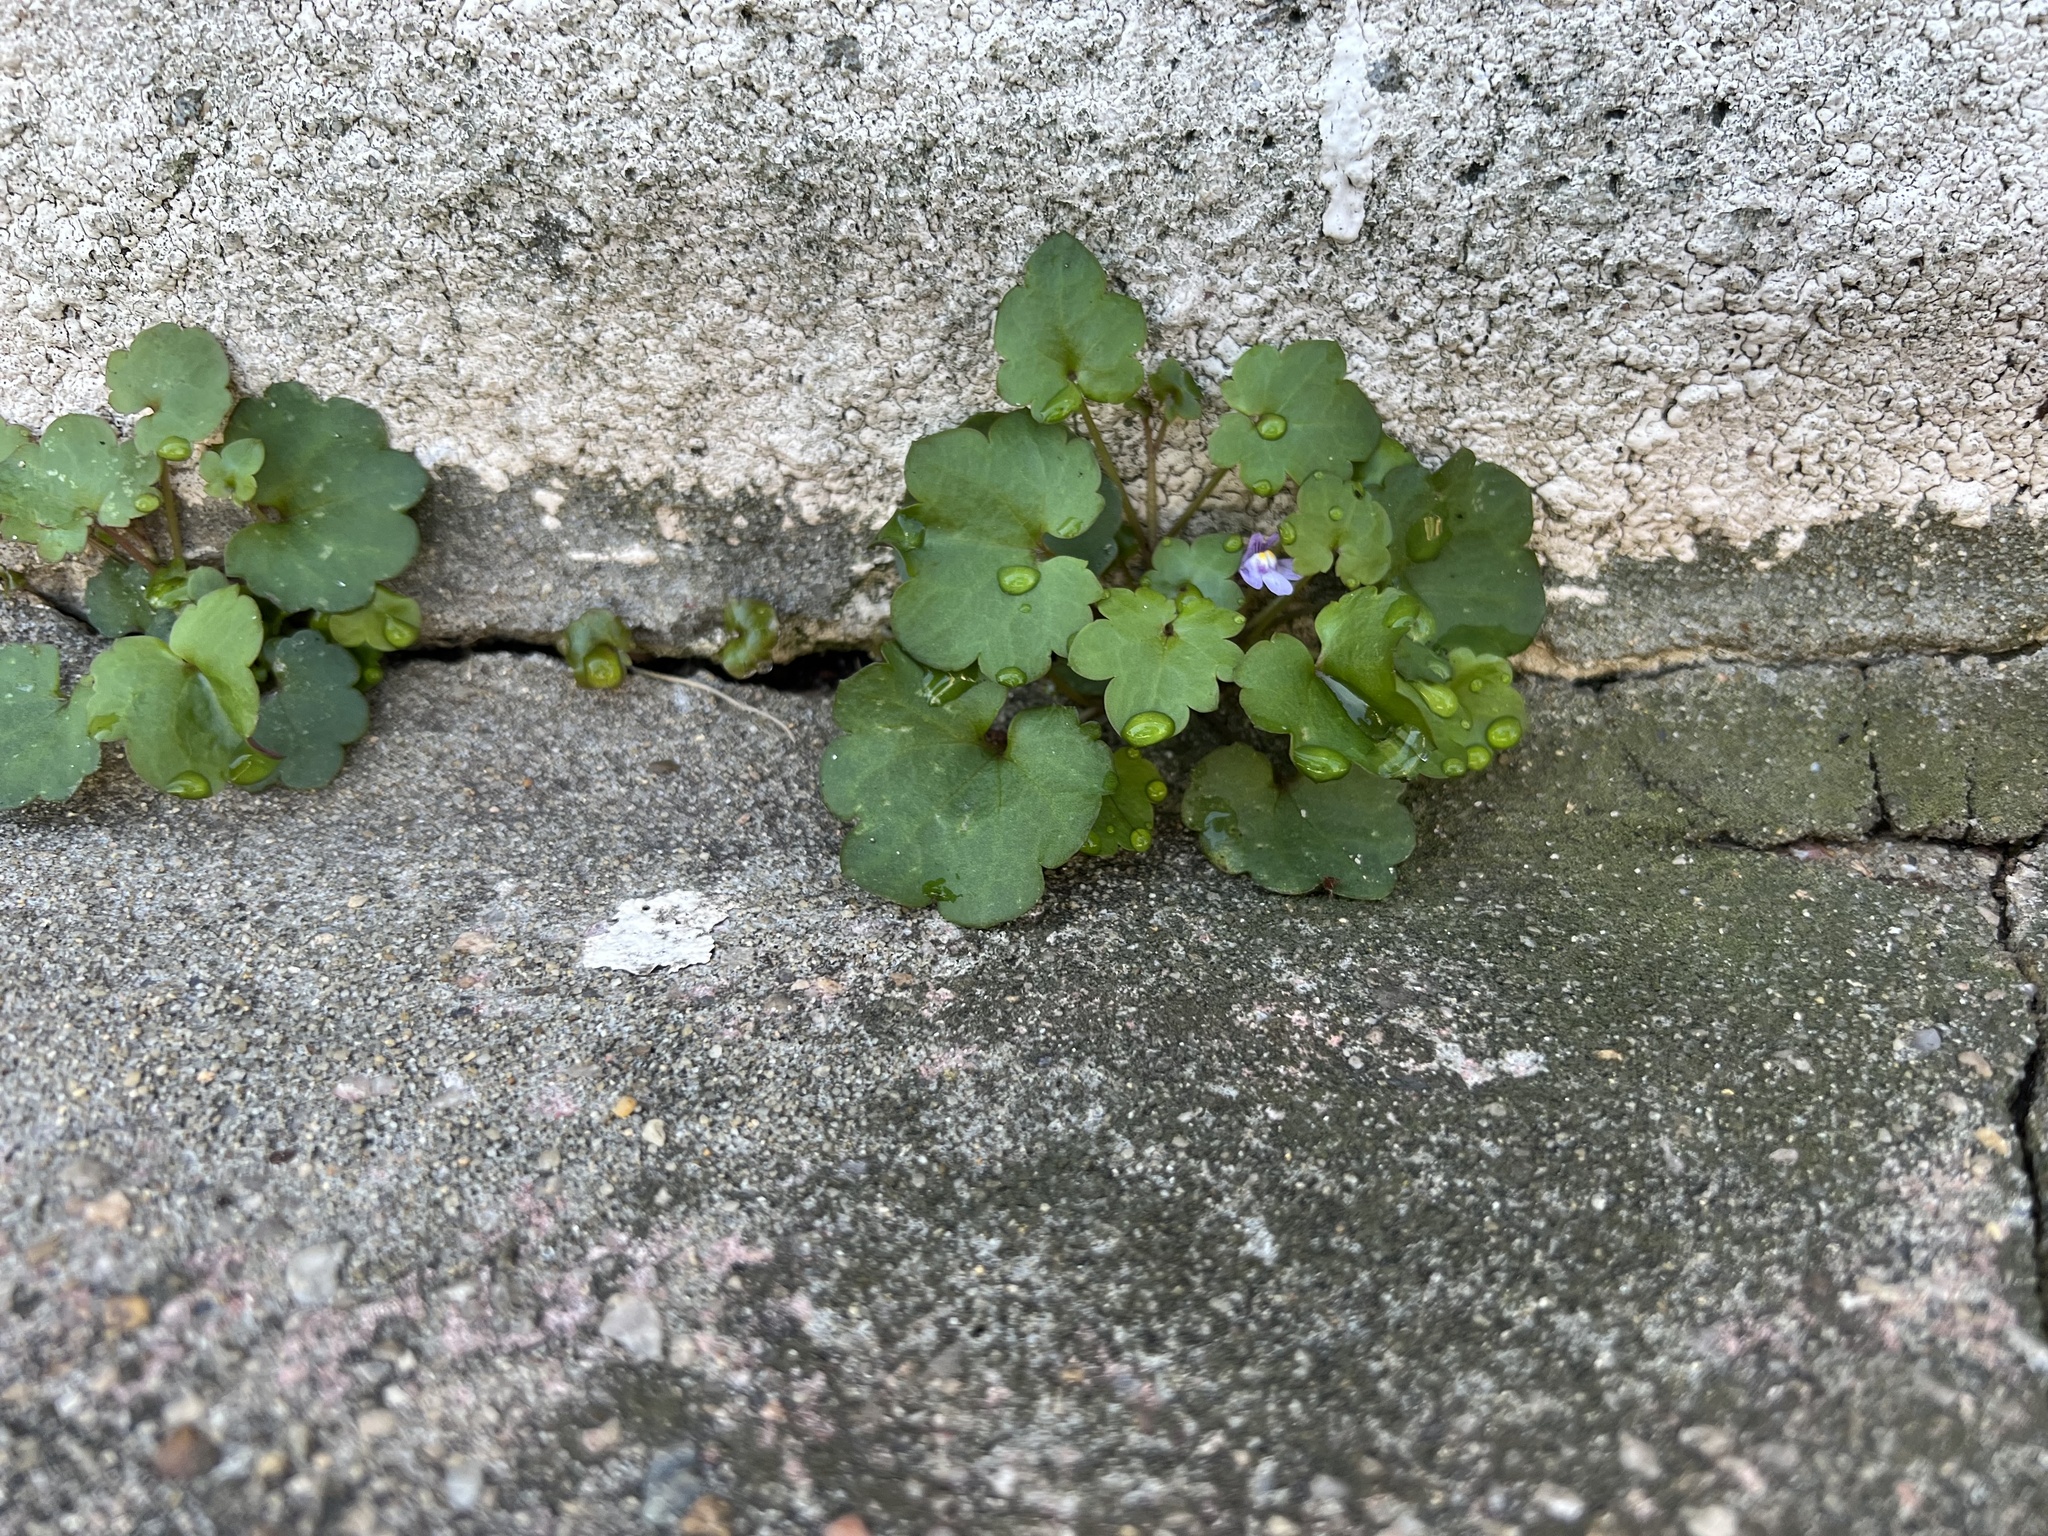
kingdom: Plantae
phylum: Tracheophyta
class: Magnoliopsida
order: Lamiales
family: Plantaginaceae
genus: Cymbalaria
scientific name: Cymbalaria muralis
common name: Ivy-leaved toadflax
